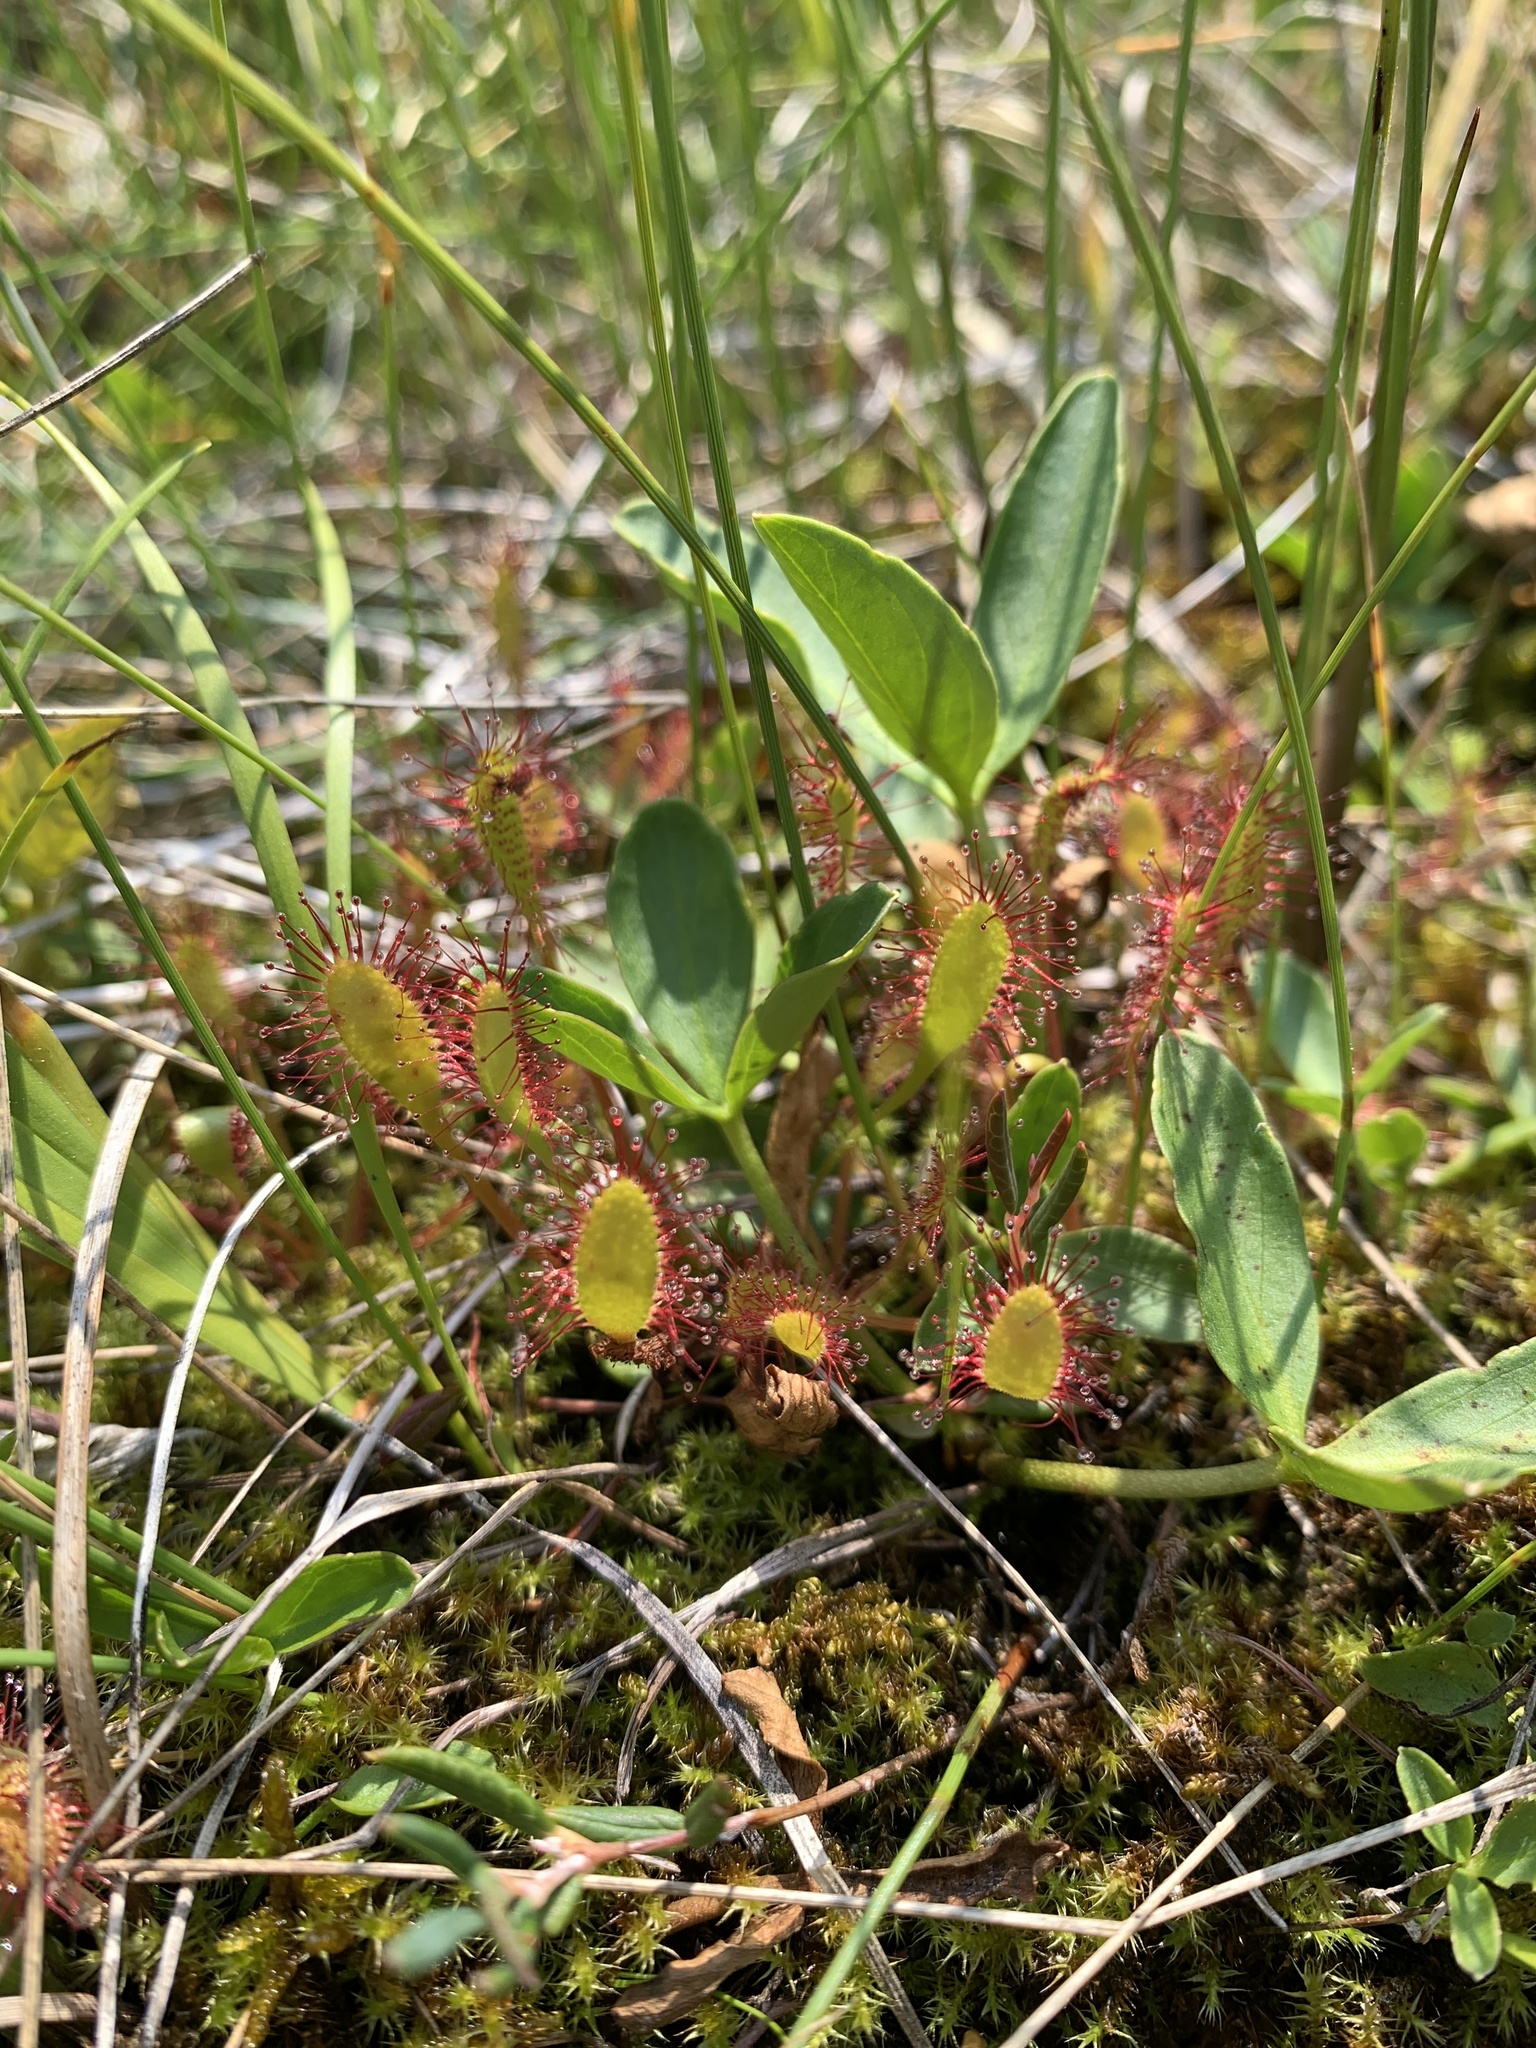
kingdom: Plantae
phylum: Tracheophyta
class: Magnoliopsida
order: Caryophyllales
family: Droseraceae
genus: Drosera
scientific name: Drosera anglica
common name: Great sundew
